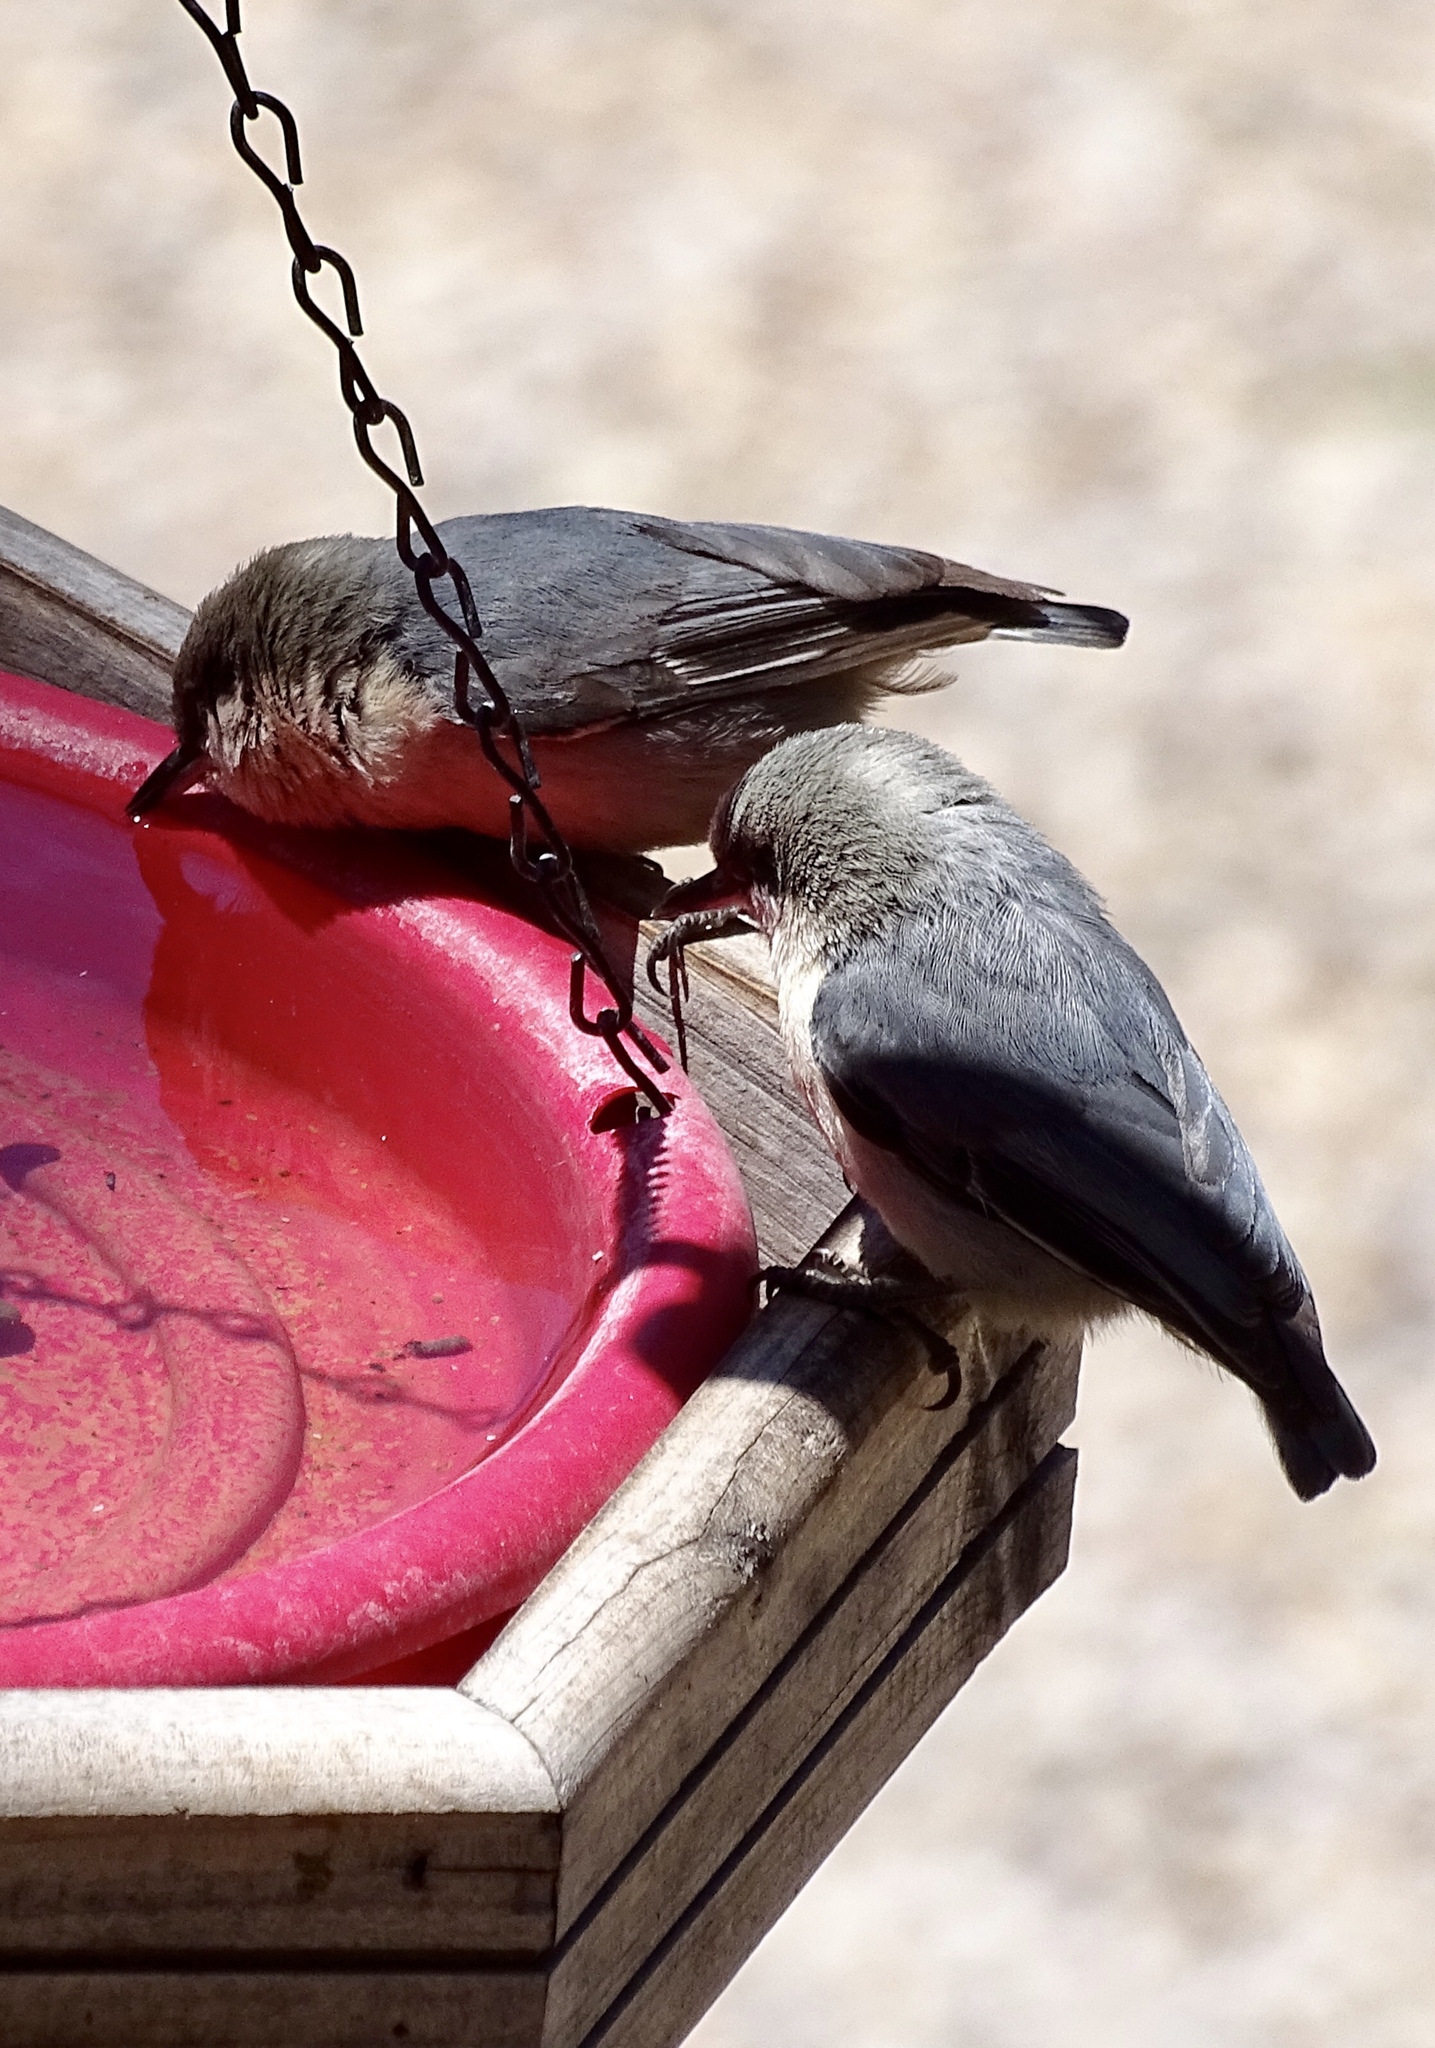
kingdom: Animalia
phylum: Chordata
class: Aves
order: Passeriformes
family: Sittidae
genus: Sitta
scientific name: Sitta pygmaea
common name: Pygmy nuthatch
